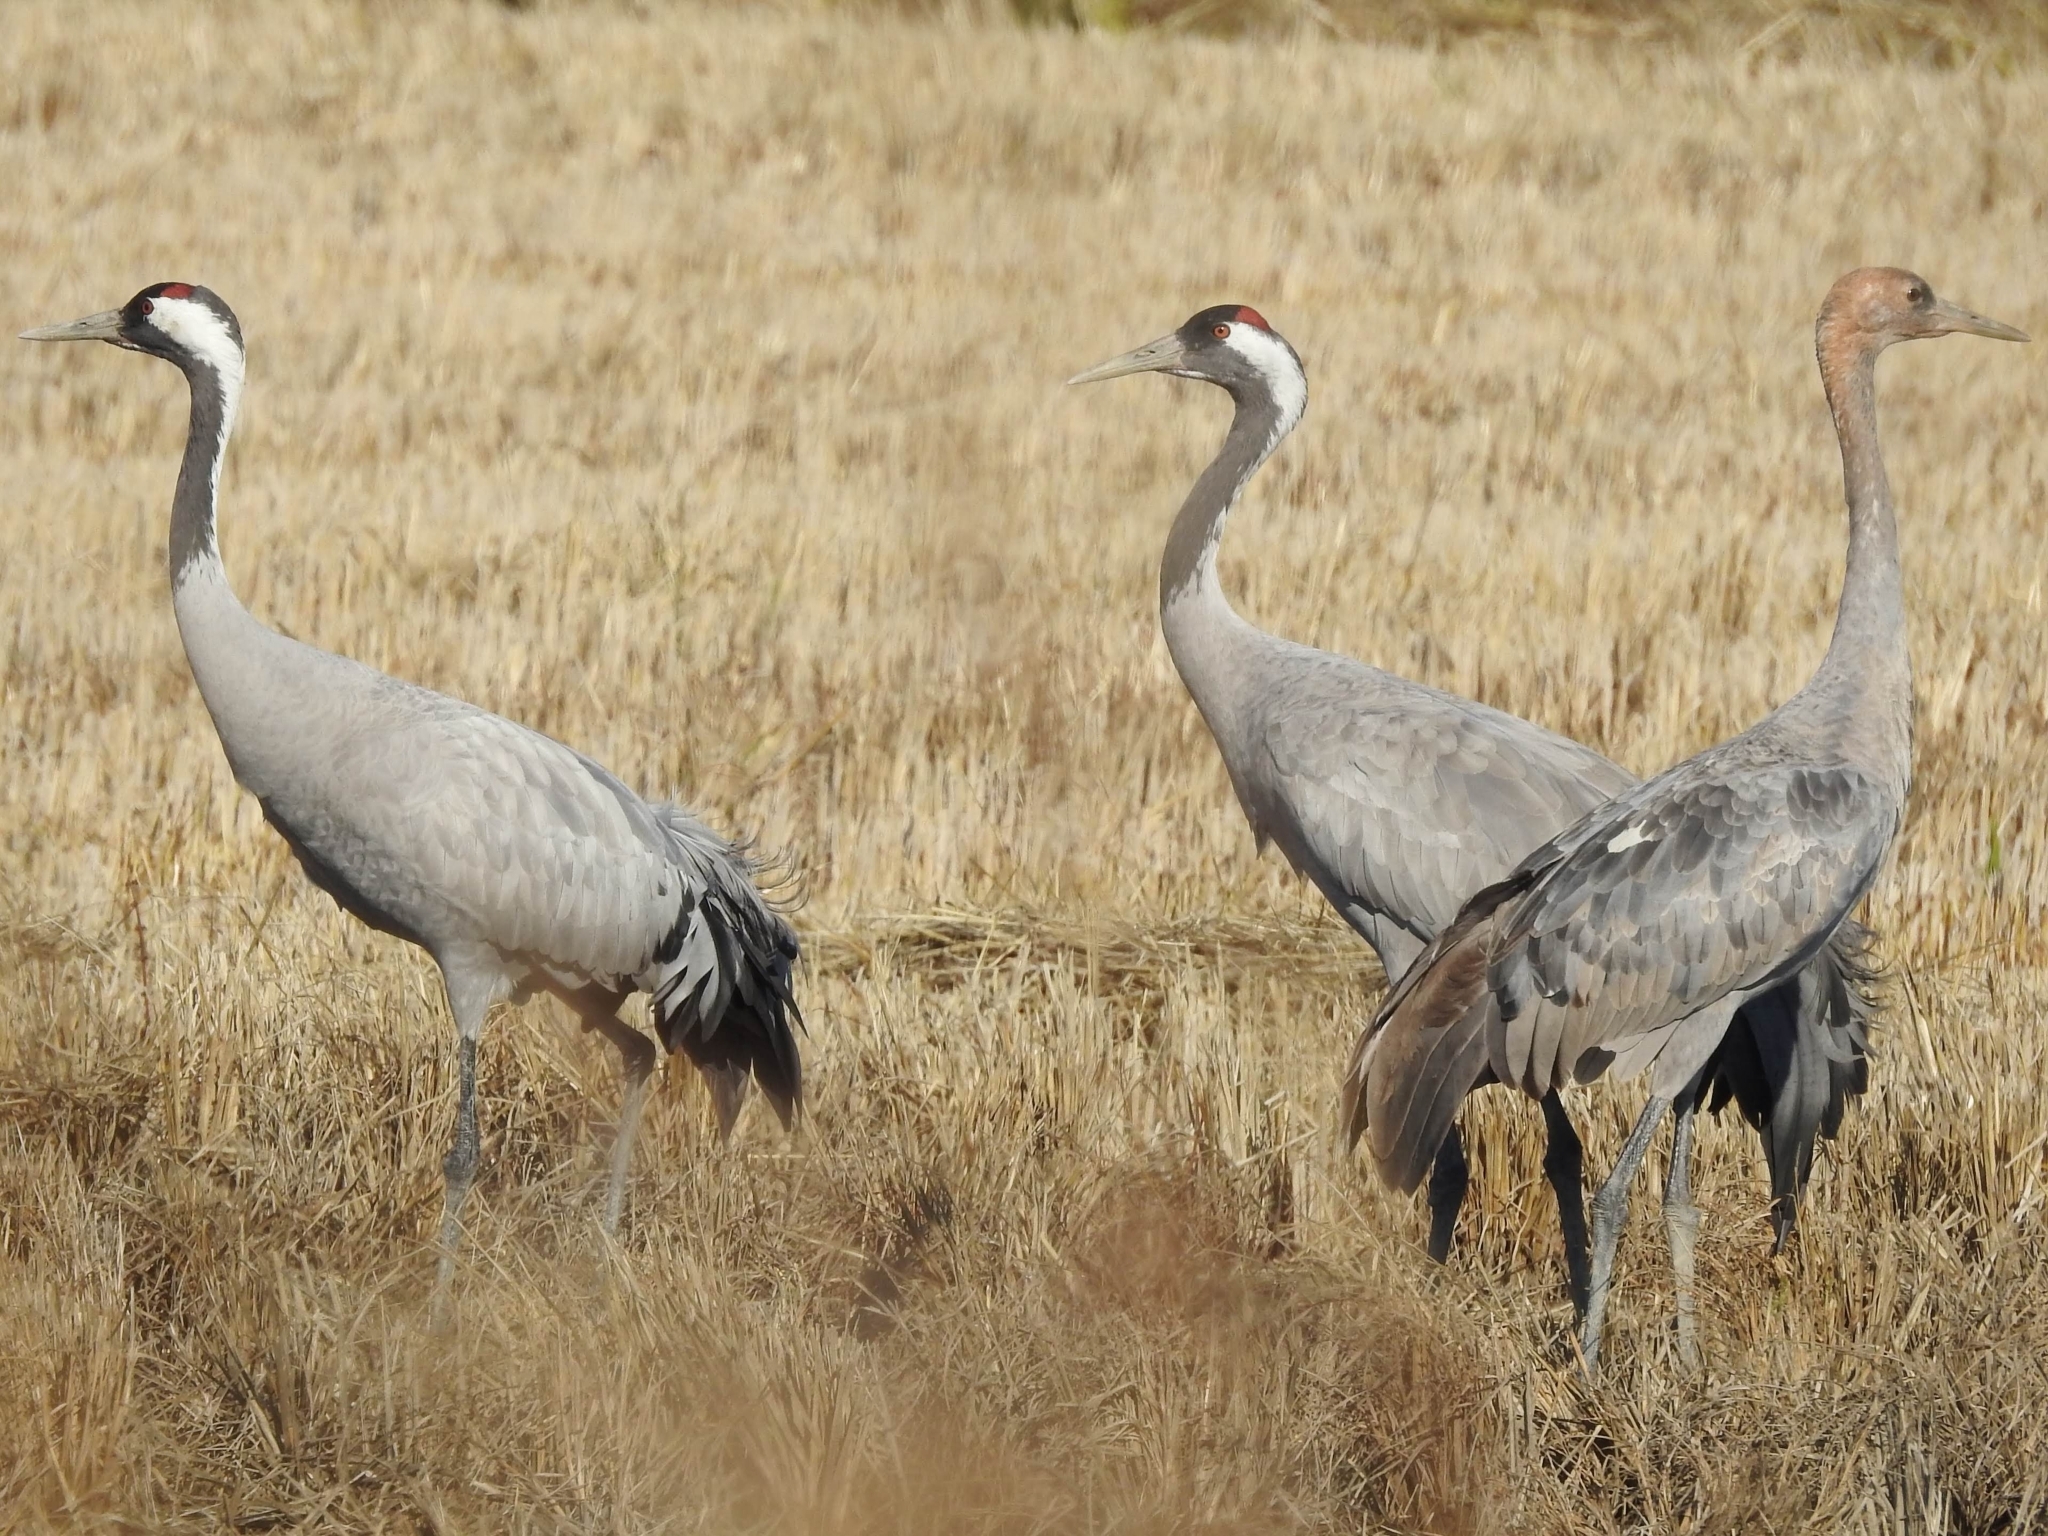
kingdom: Animalia
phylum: Chordata
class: Aves
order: Gruiformes
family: Gruidae
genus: Grus
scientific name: Grus grus
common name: Common crane
